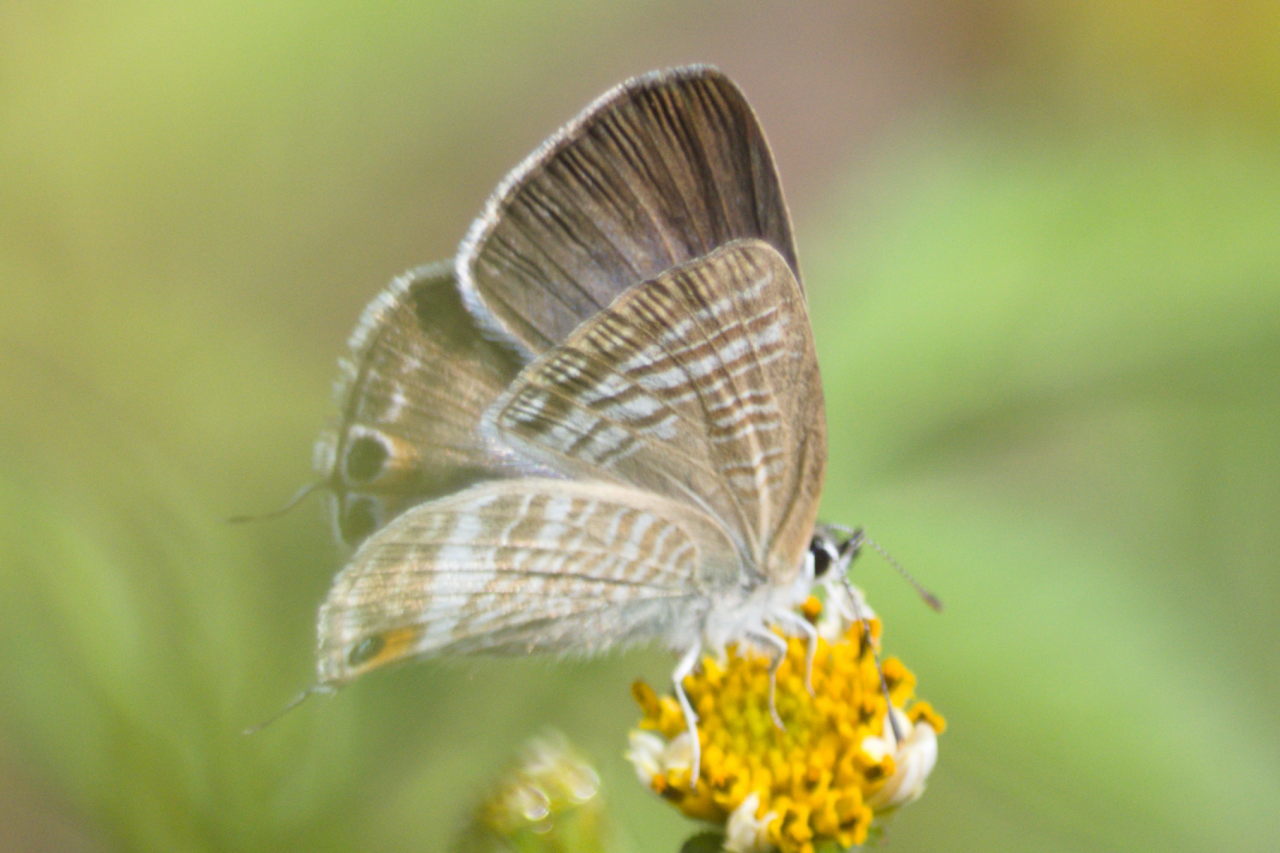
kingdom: Animalia
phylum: Arthropoda
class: Insecta
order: Lepidoptera
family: Lycaenidae
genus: Lampides
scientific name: Lampides boeticus
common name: Long-tailed blue
